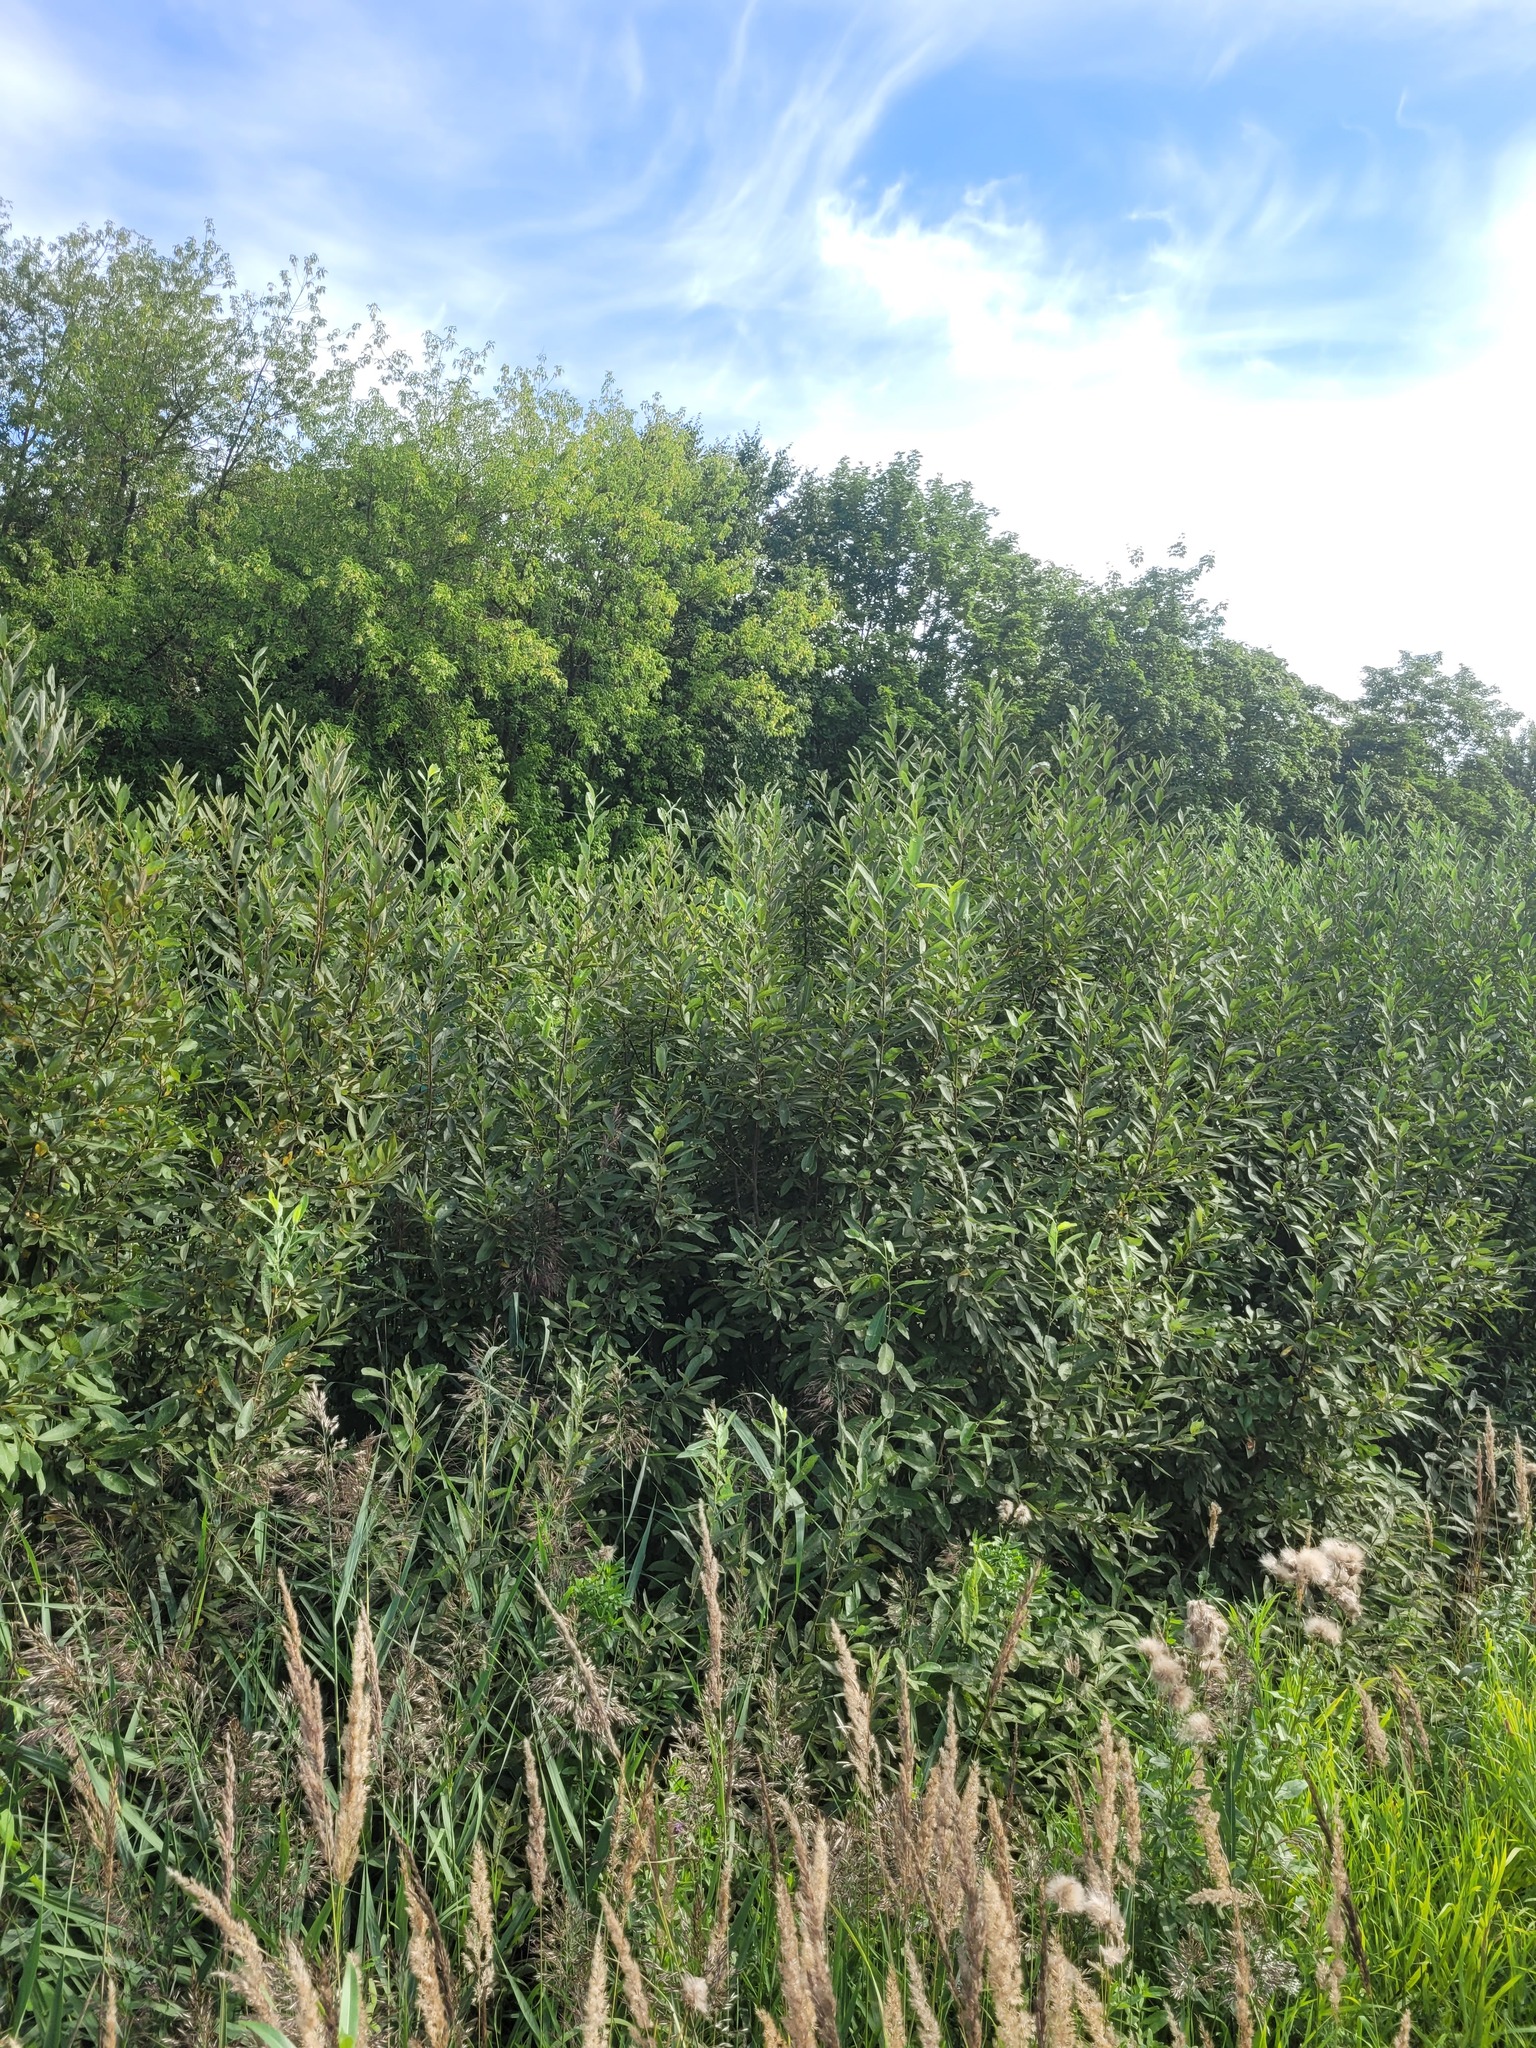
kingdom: Plantae
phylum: Tracheophyta
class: Magnoliopsida
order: Malpighiales
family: Salicaceae
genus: Salix
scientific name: Salix cinerea
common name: Common sallow
